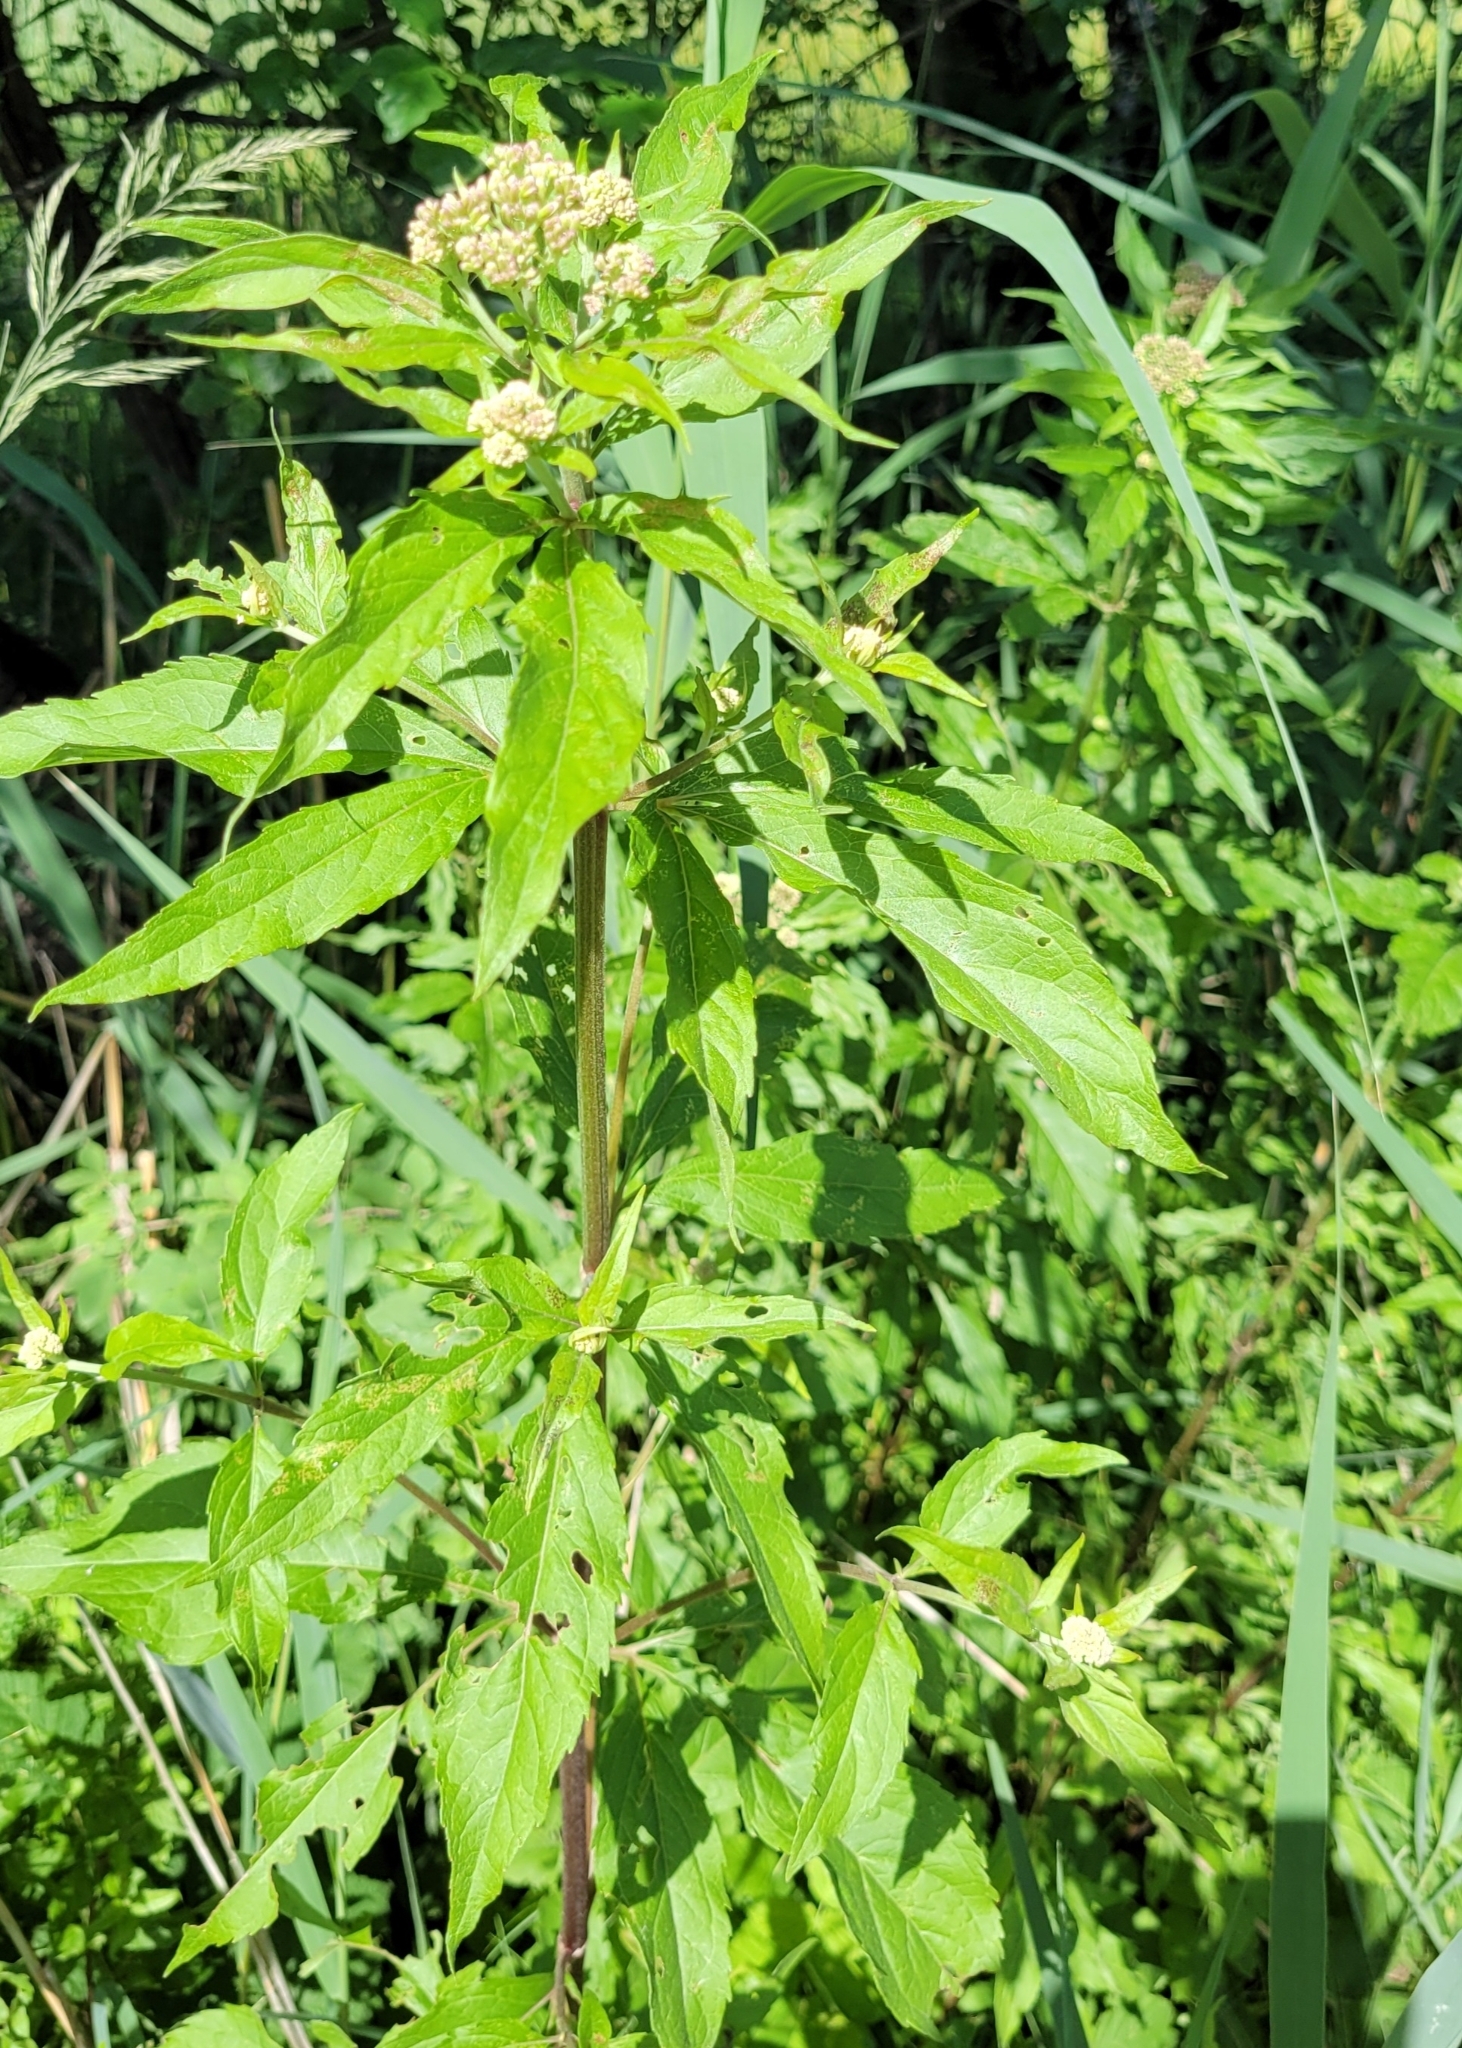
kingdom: Plantae
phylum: Tracheophyta
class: Magnoliopsida
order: Asterales
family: Asteraceae
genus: Eupatorium
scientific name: Eupatorium cannabinum
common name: Hemp-agrimony
